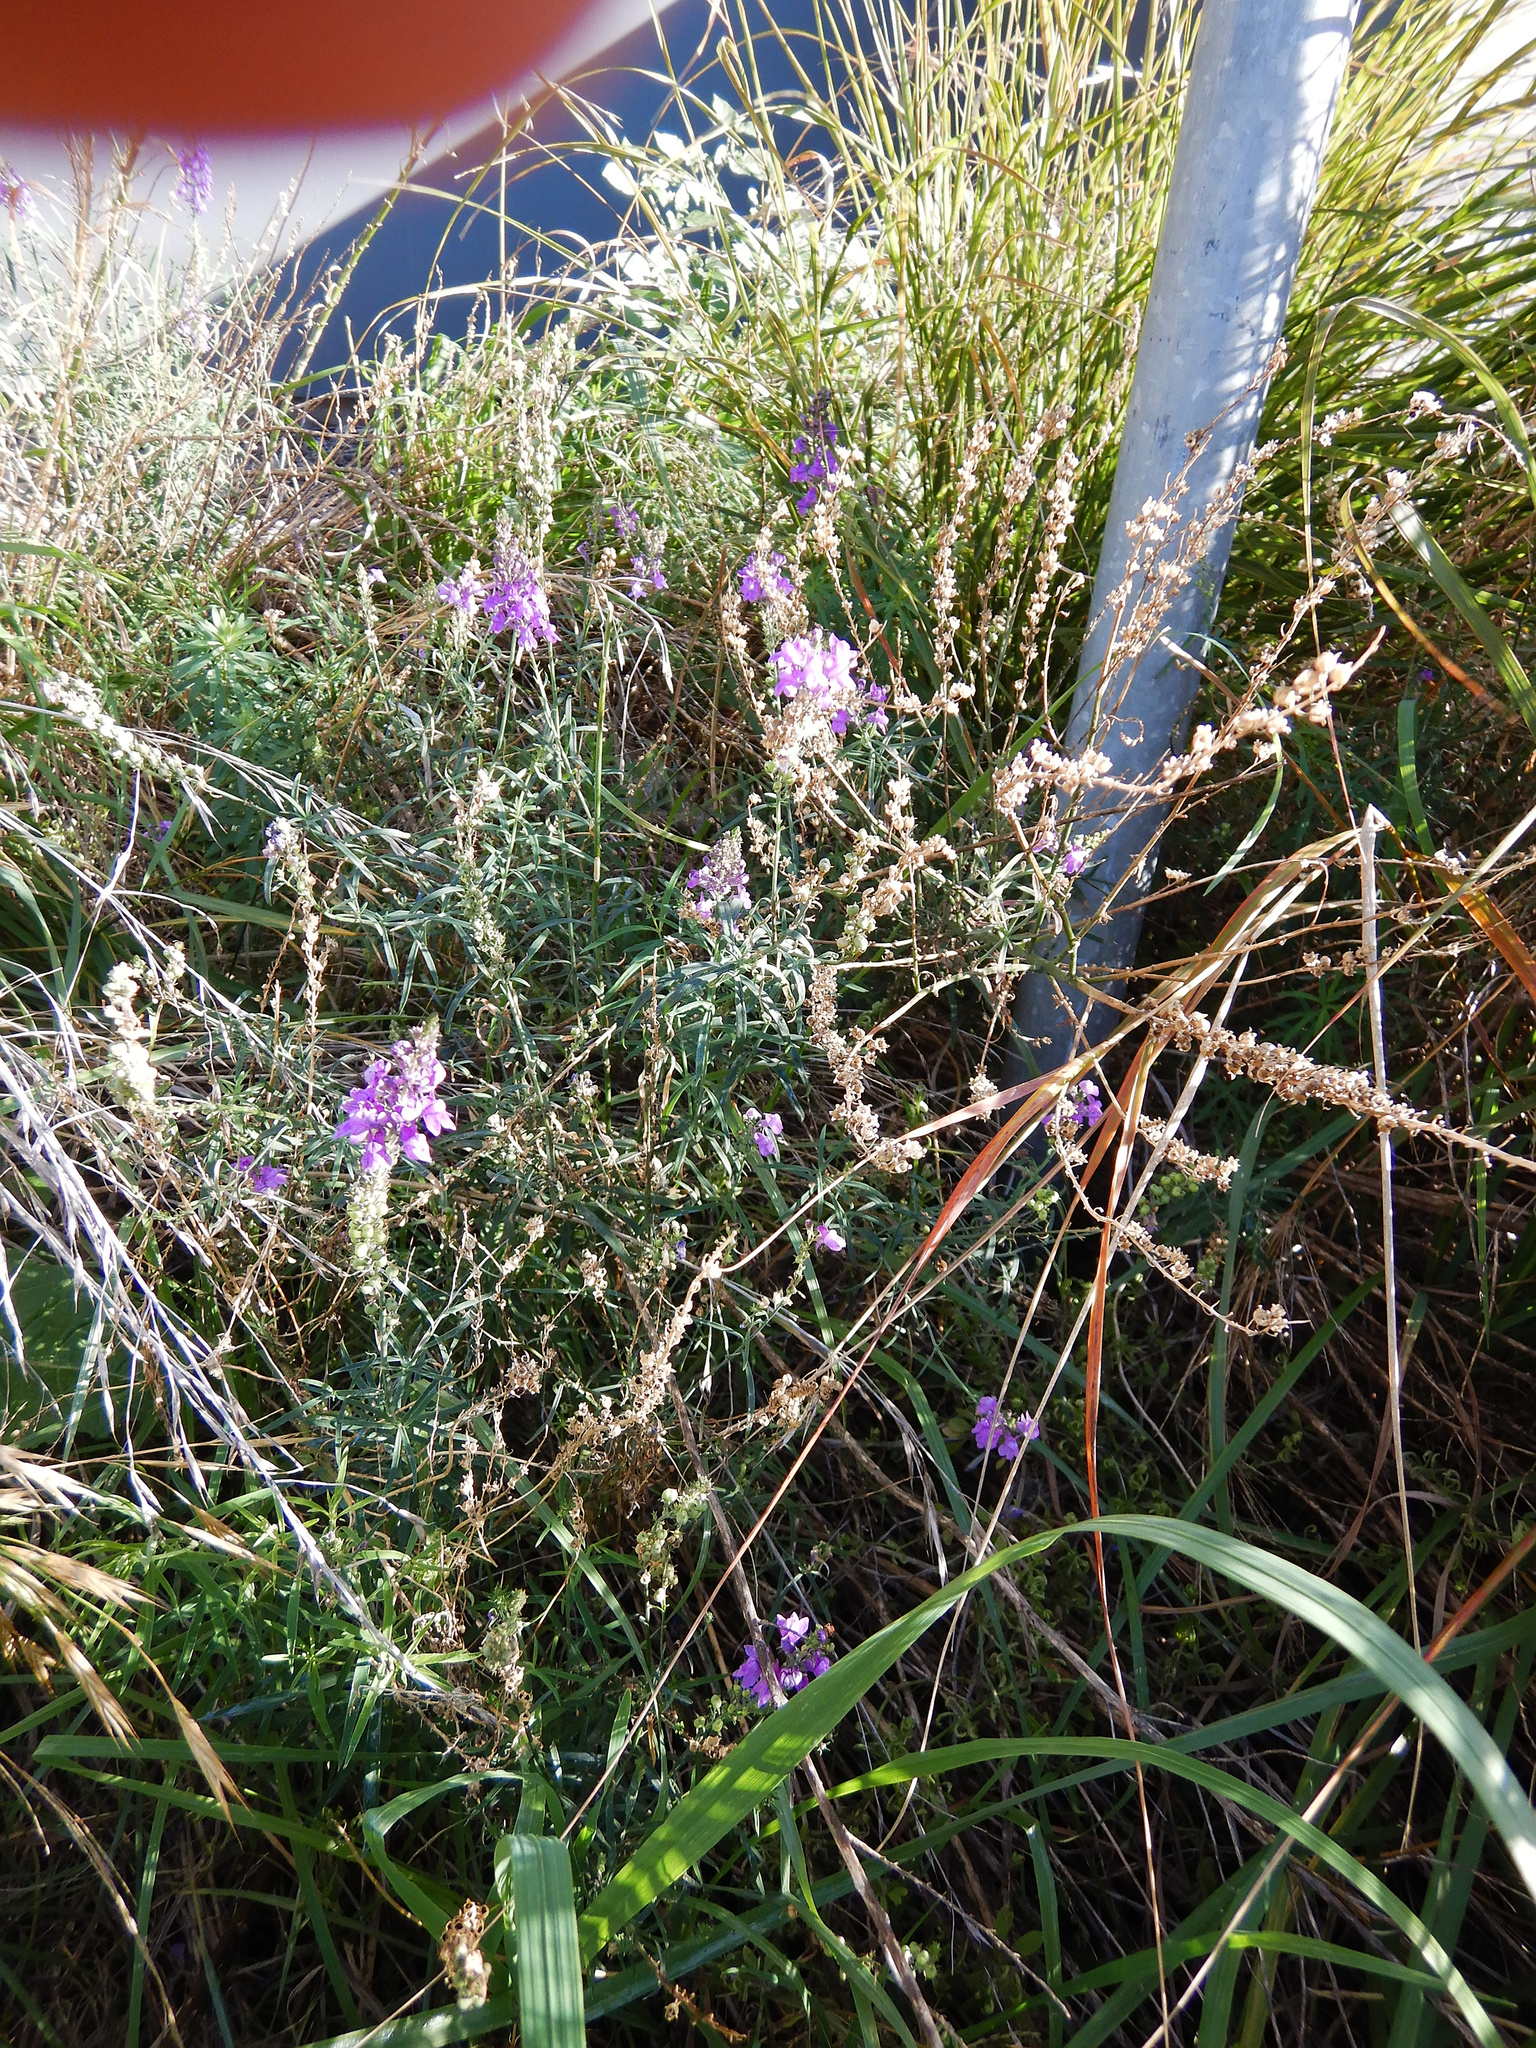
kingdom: Plantae
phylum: Tracheophyta
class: Magnoliopsida
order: Lamiales
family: Plantaginaceae
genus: Linaria
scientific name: Linaria purpurea
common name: Purple toadflax
